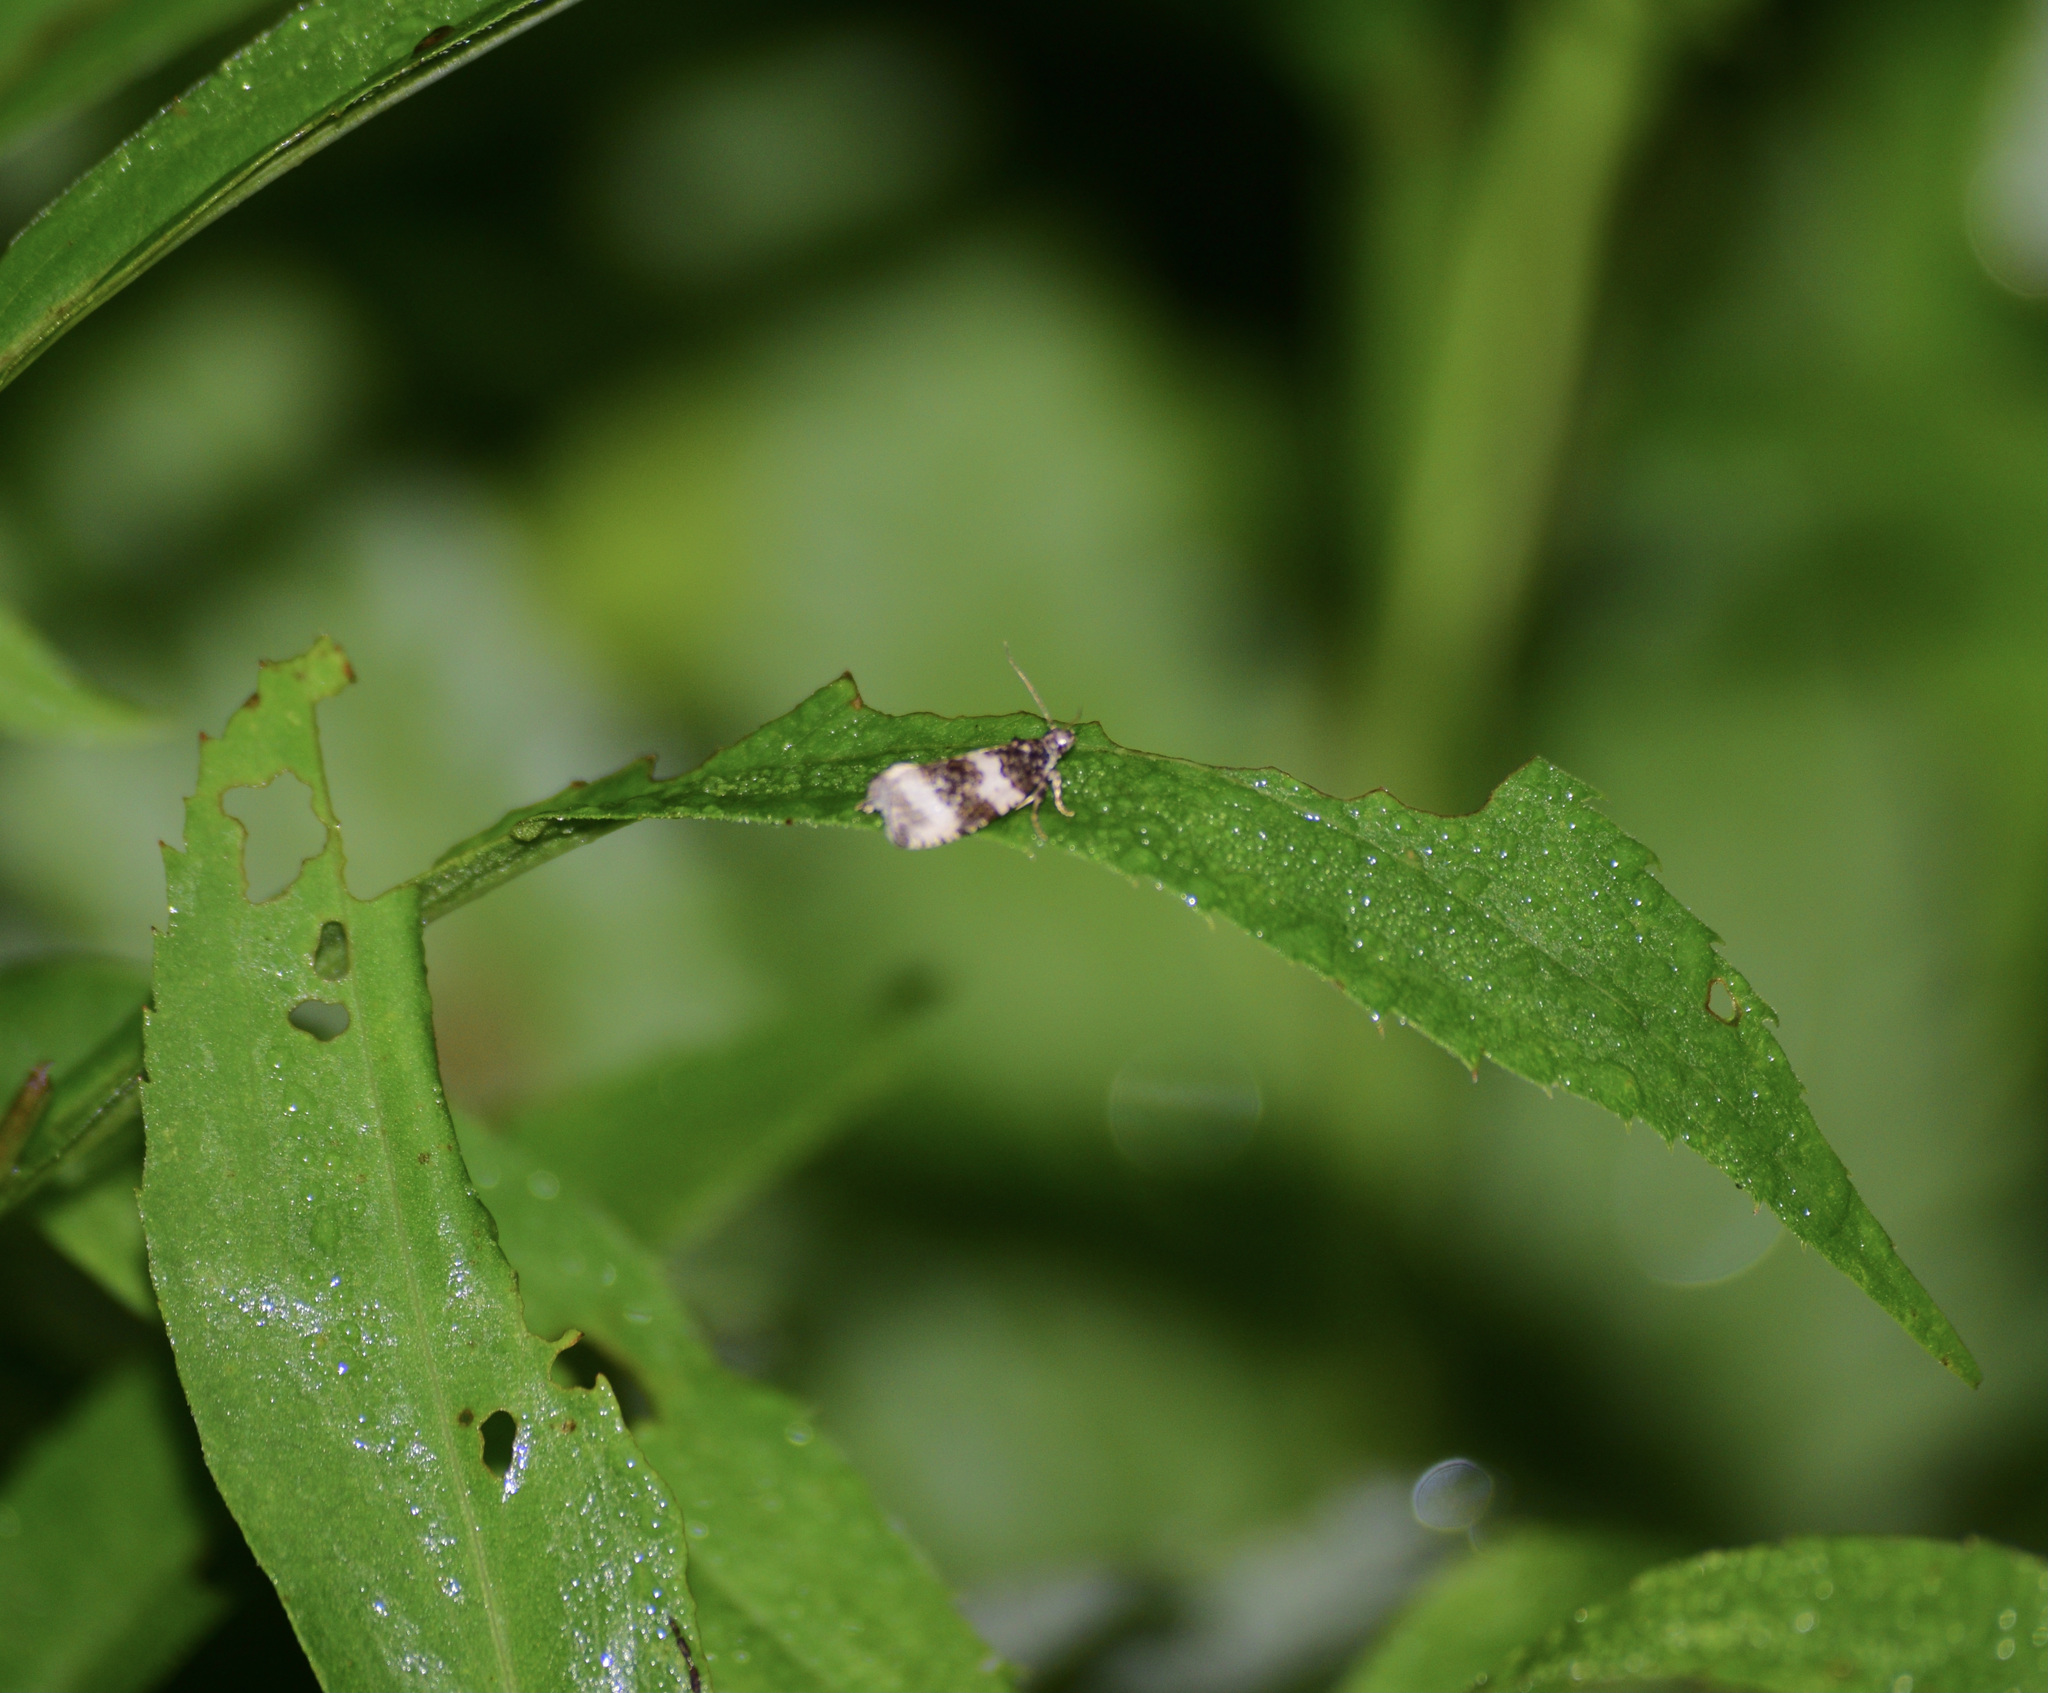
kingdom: Animalia
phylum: Arthropoda
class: Insecta
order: Lepidoptera
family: Tortricidae
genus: Olethreutes
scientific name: Olethreutes bipartitana
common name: Divided olethreutes moth
